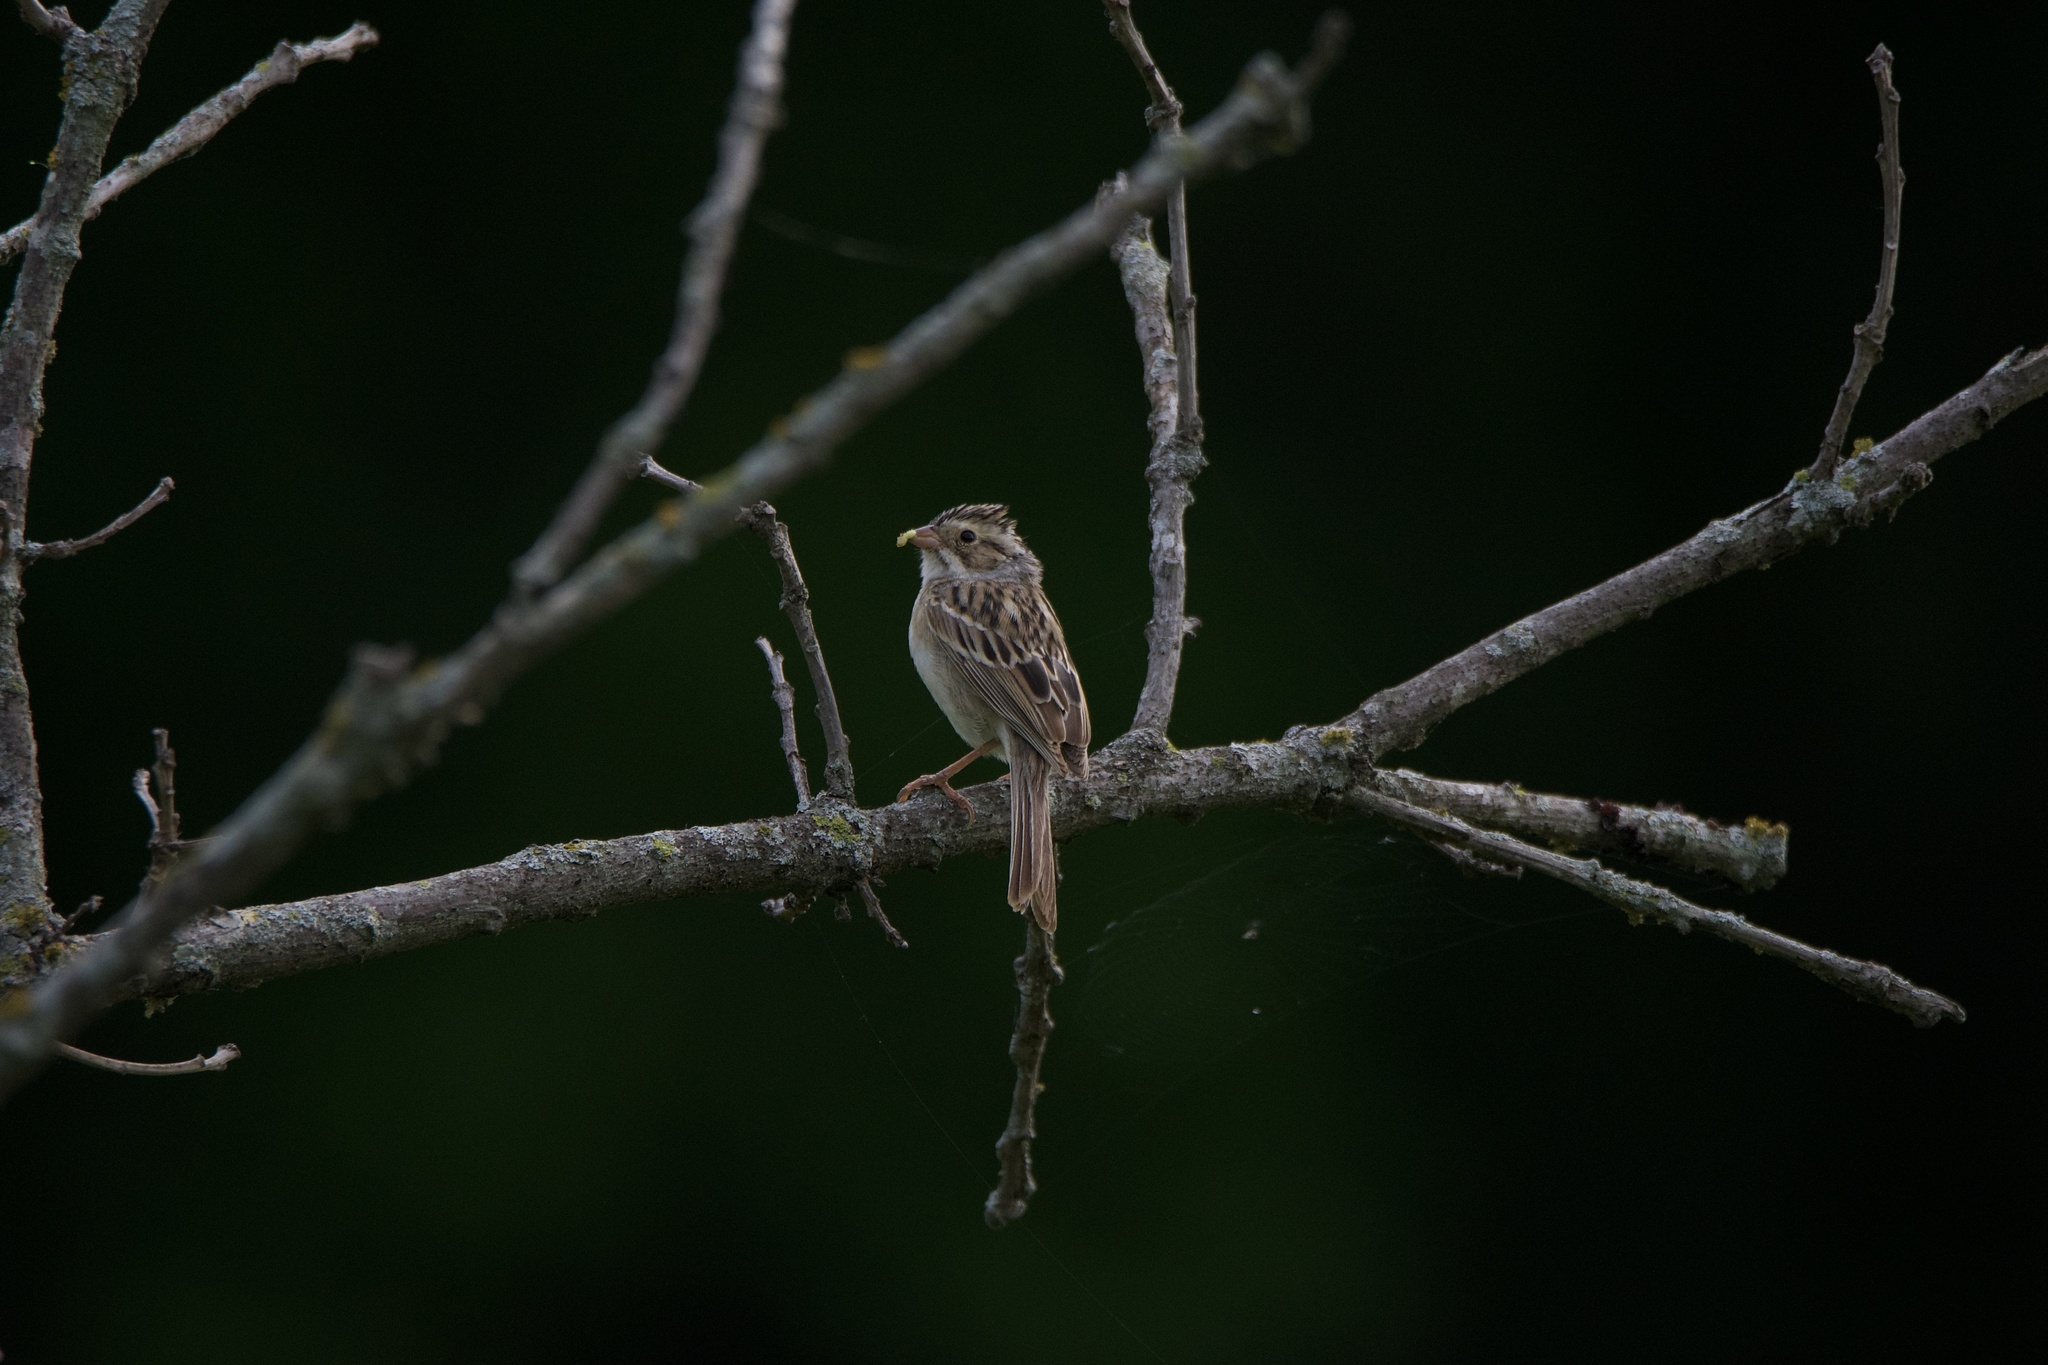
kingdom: Animalia
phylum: Chordata
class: Aves
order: Passeriformes
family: Passerellidae
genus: Spizella
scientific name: Spizella pallida
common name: Clay-colored sparrow
